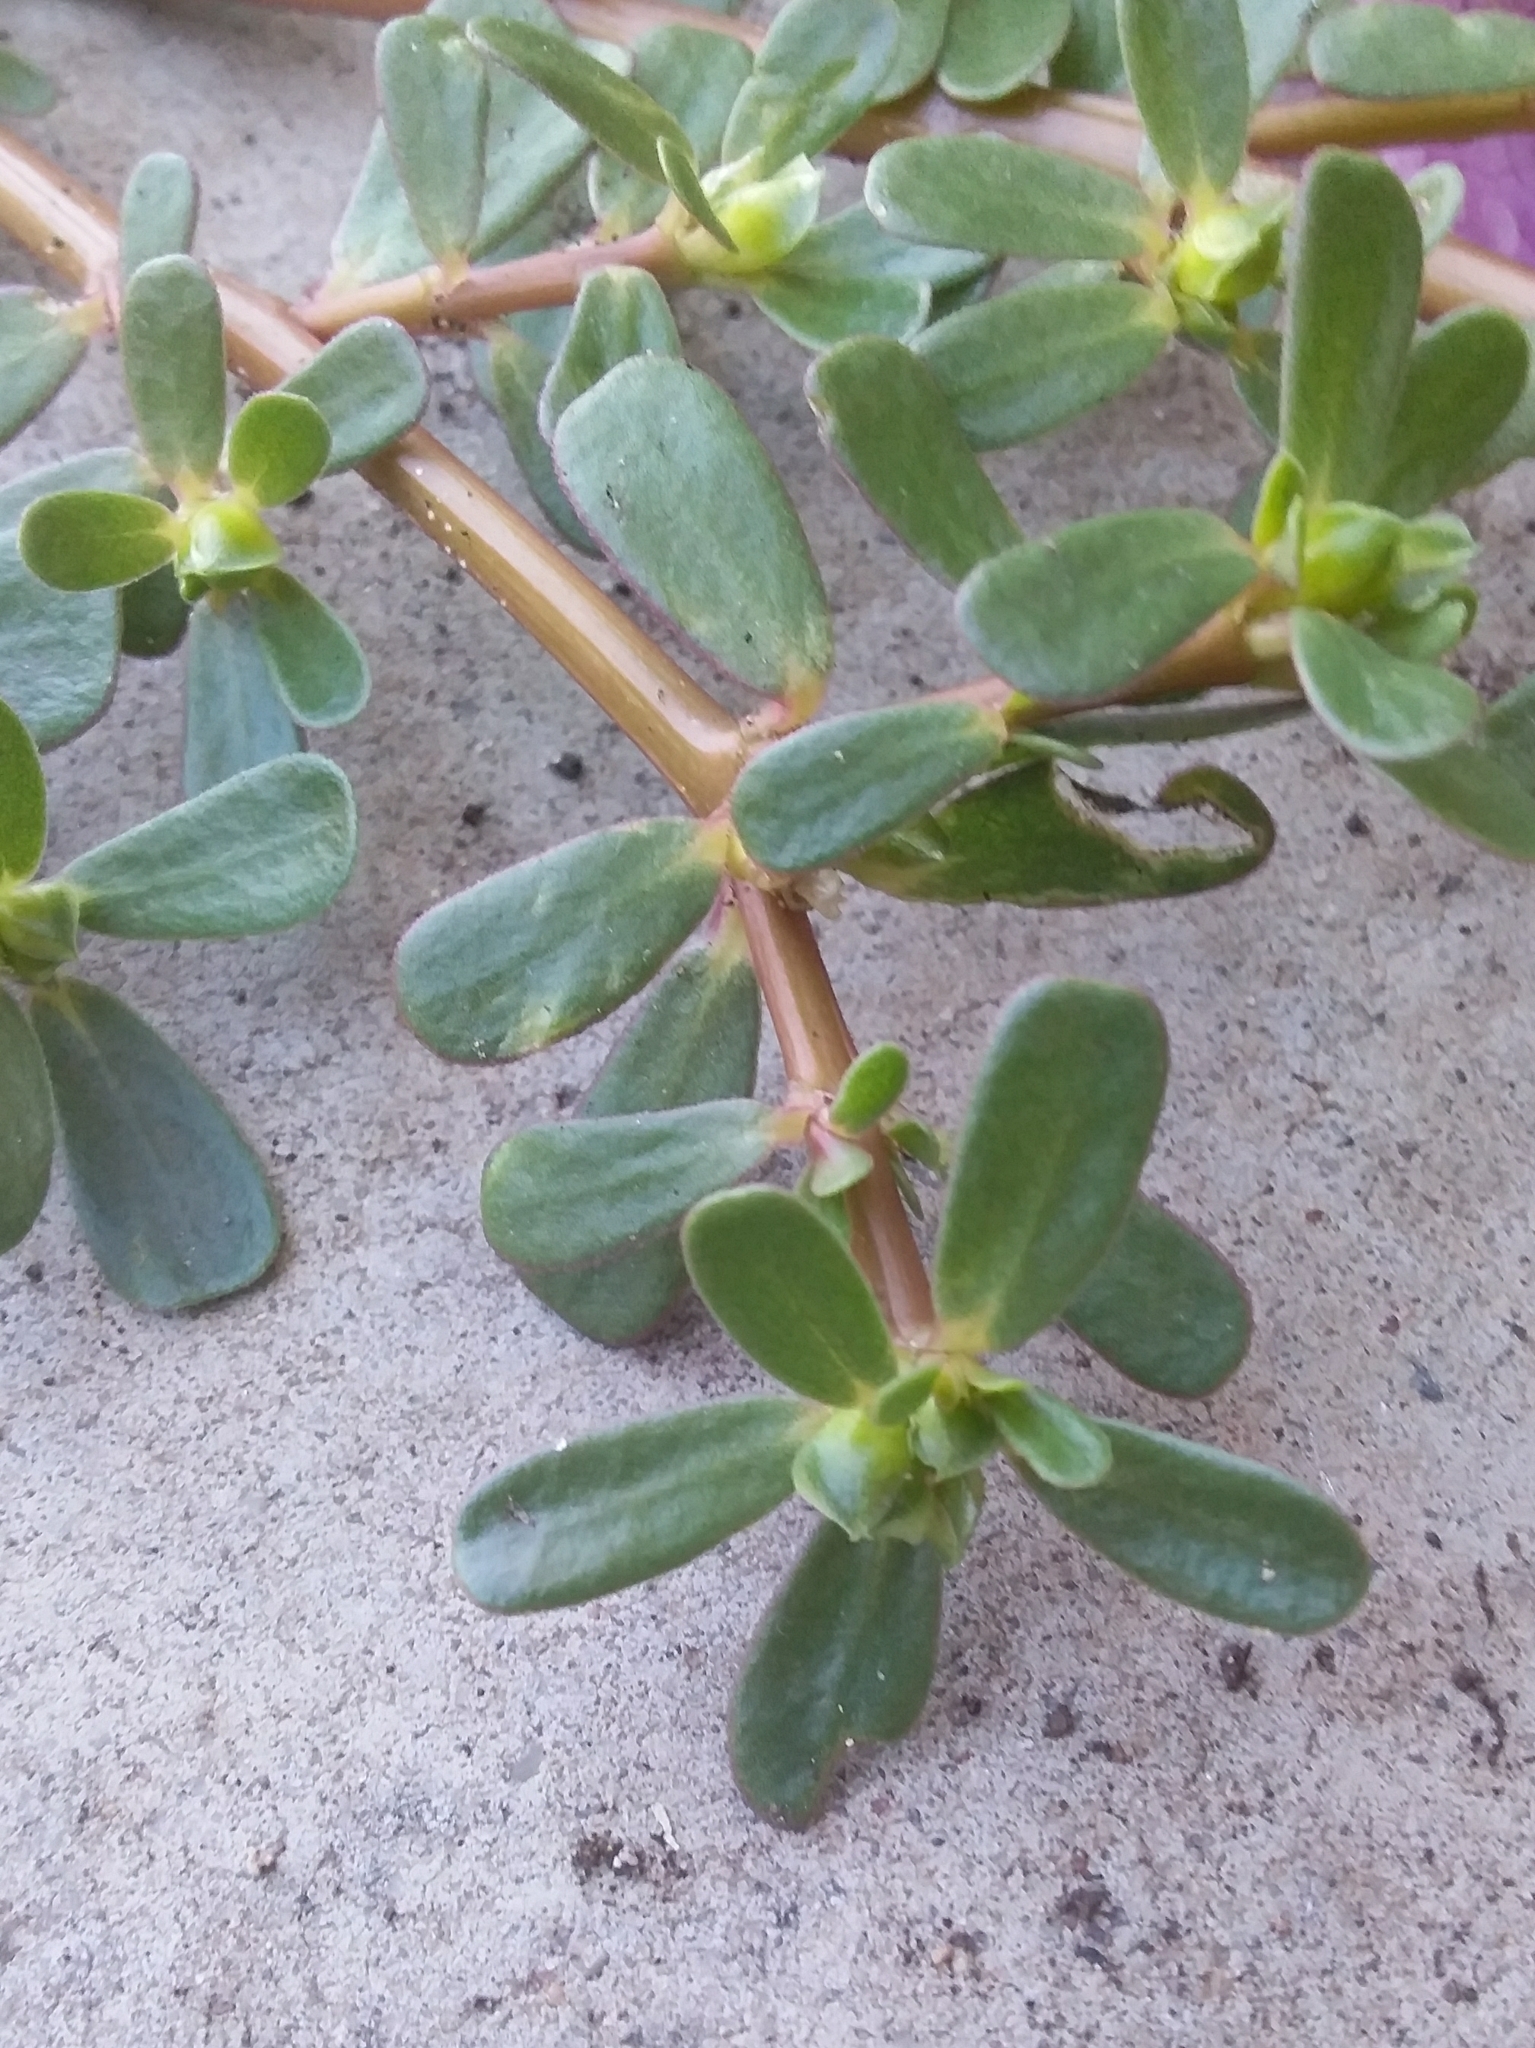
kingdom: Plantae
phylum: Tracheophyta
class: Magnoliopsida
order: Caryophyllales
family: Portulacaceae
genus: Portulaca
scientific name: Portulaca oleracea
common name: Common purslane
